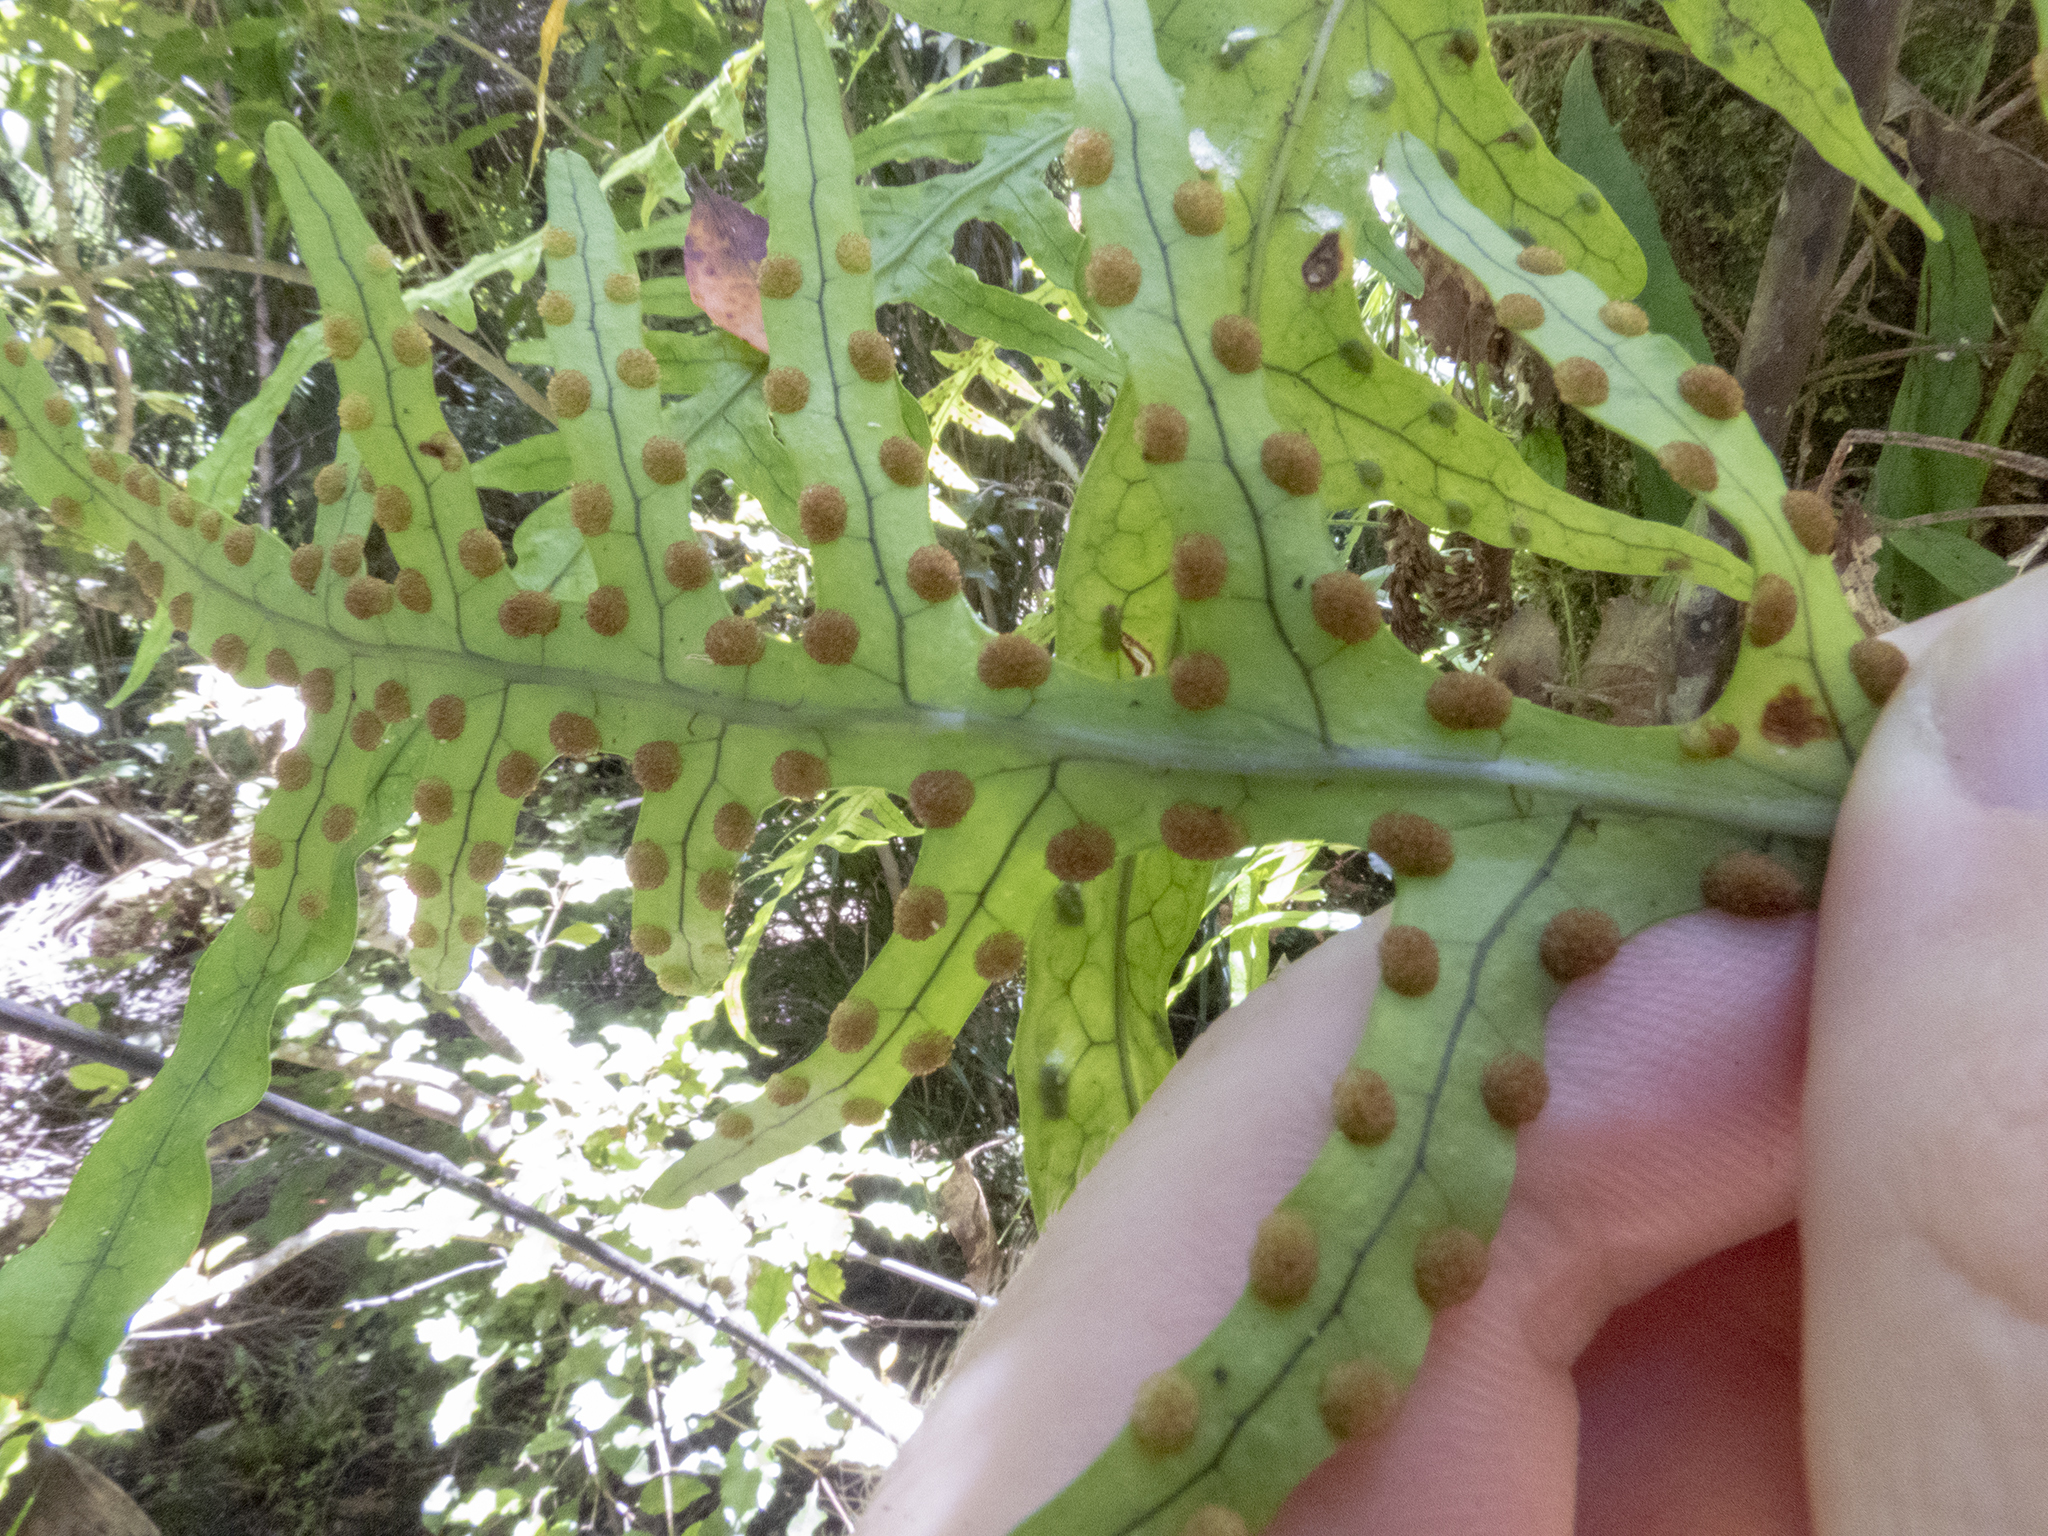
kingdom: Plantae
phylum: Tracheophyta
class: Polypodiopsida
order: Polypodiales
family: Polypodiaceae
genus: Lecanopteris
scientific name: Lecanopteris scandens
